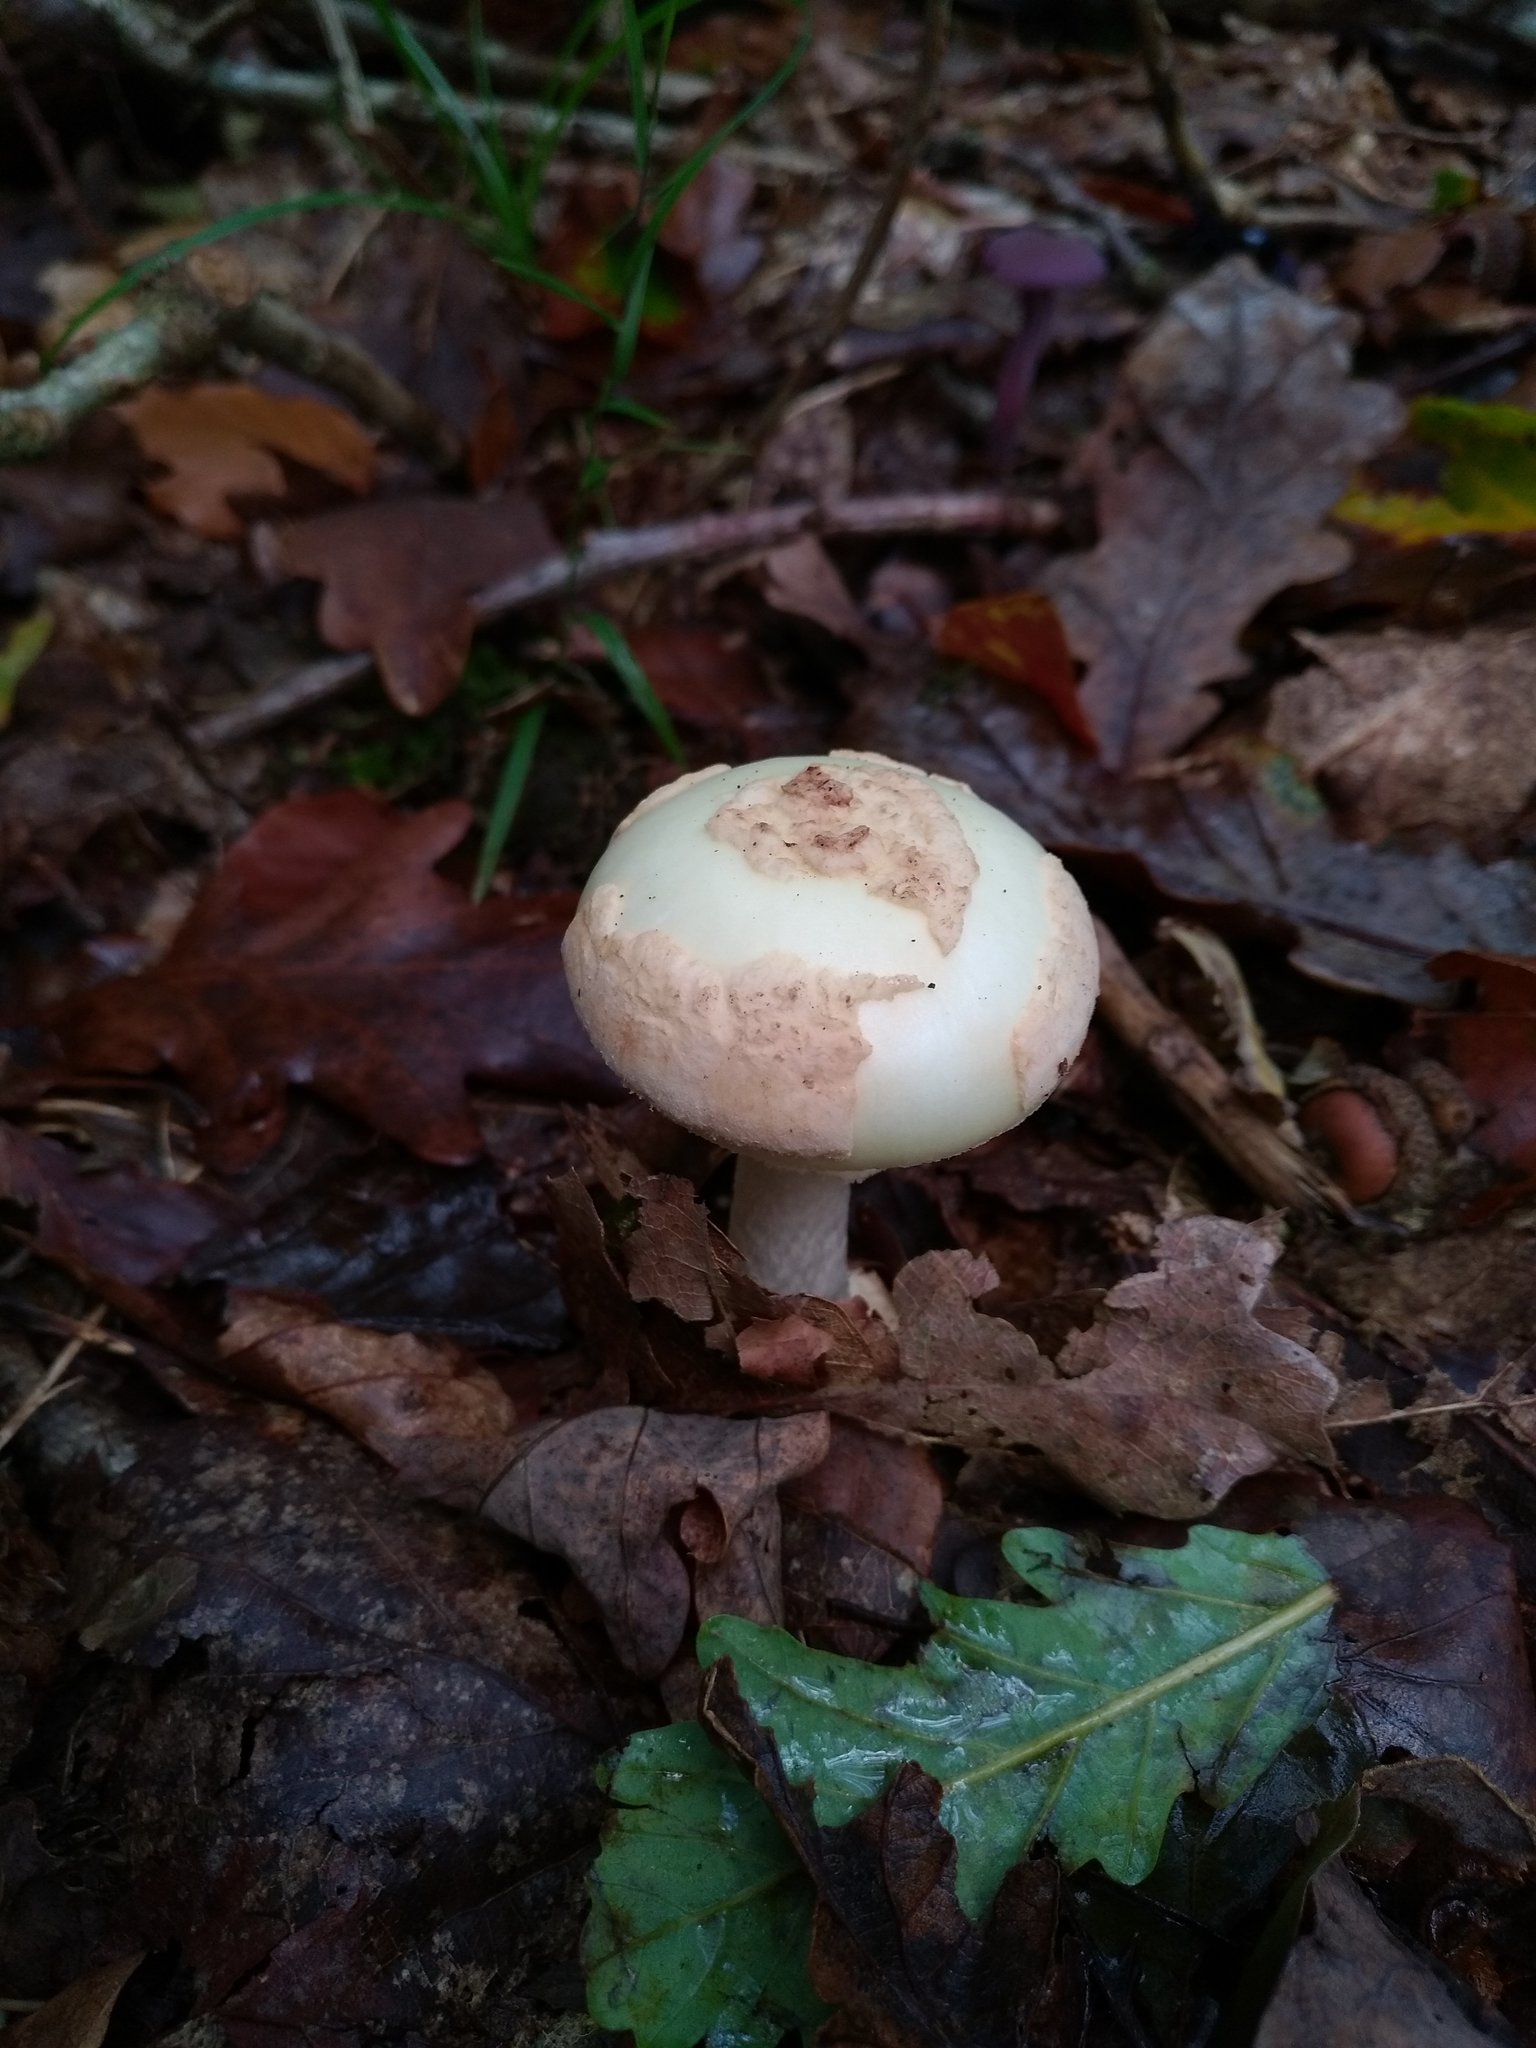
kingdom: Fungi
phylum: Basidiomycota
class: Agaricomycetes
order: Agaricales
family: Amanitaceae
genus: Amanita
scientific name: Amanita citrina
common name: False death-cap
